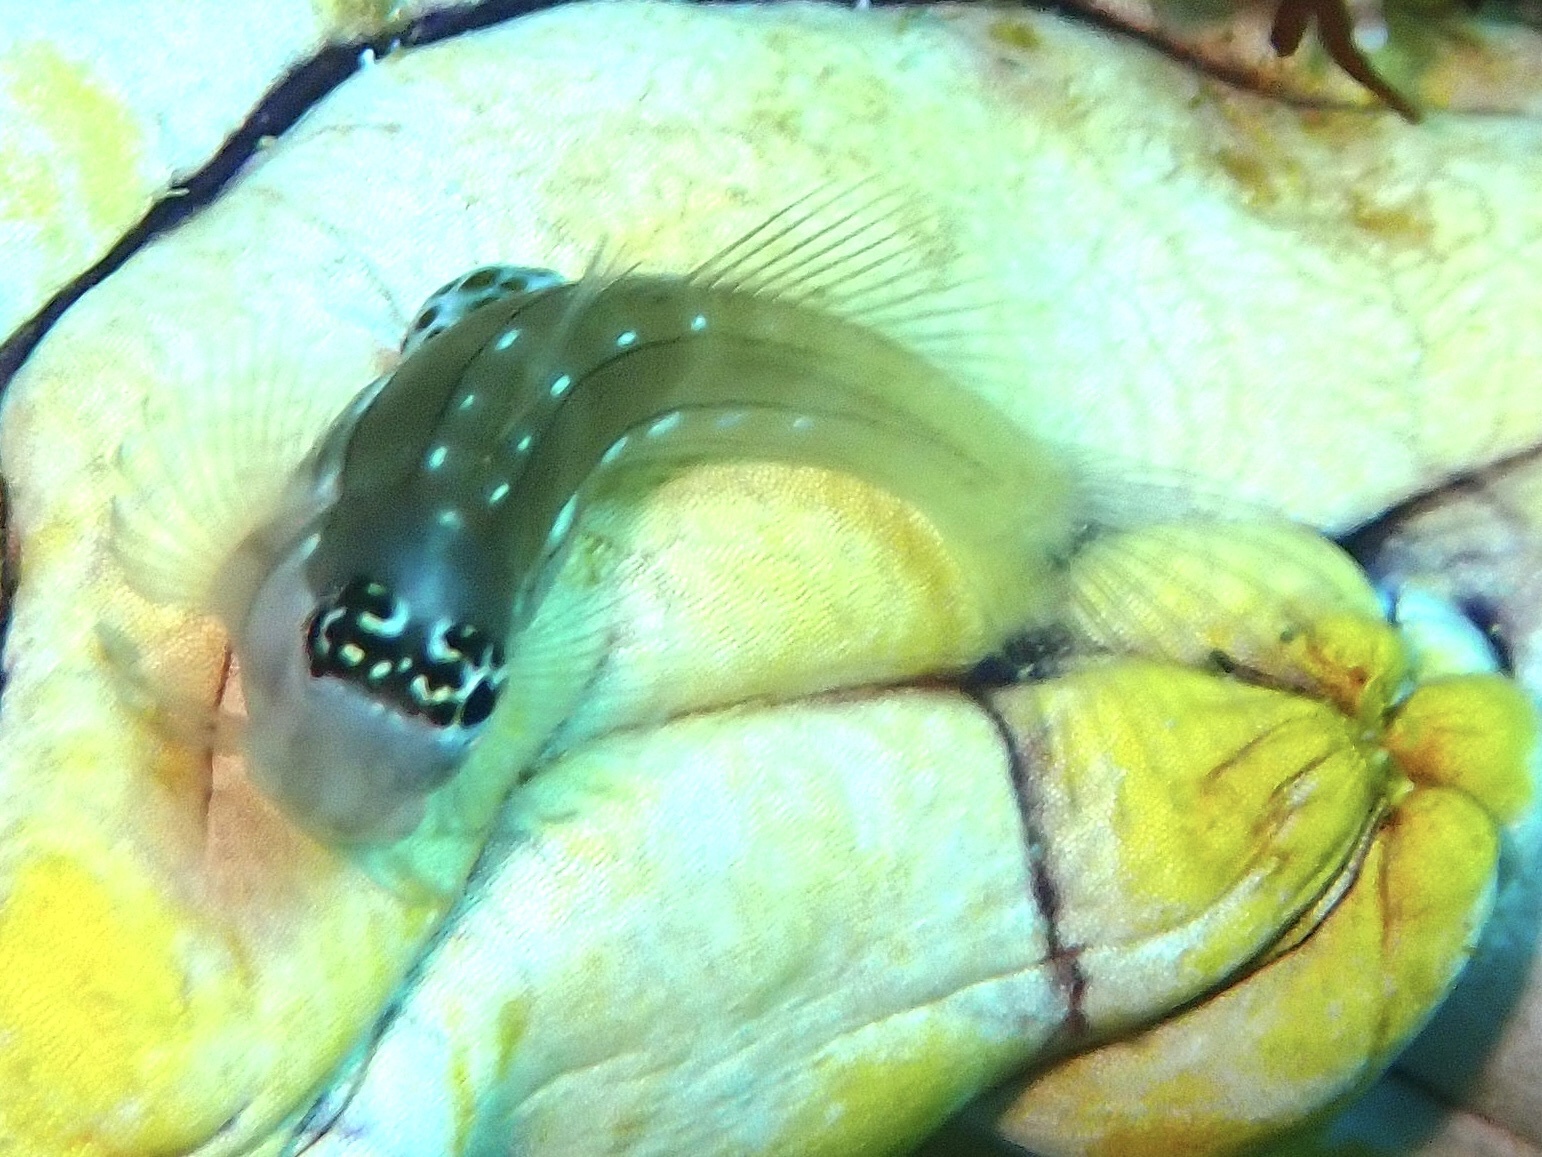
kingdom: Animalia
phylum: Chordata
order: Perciformes
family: Blenniidae
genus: Ecsenius
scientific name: Ecsenius schroederi
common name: Schroeder's combtooth-blenny
